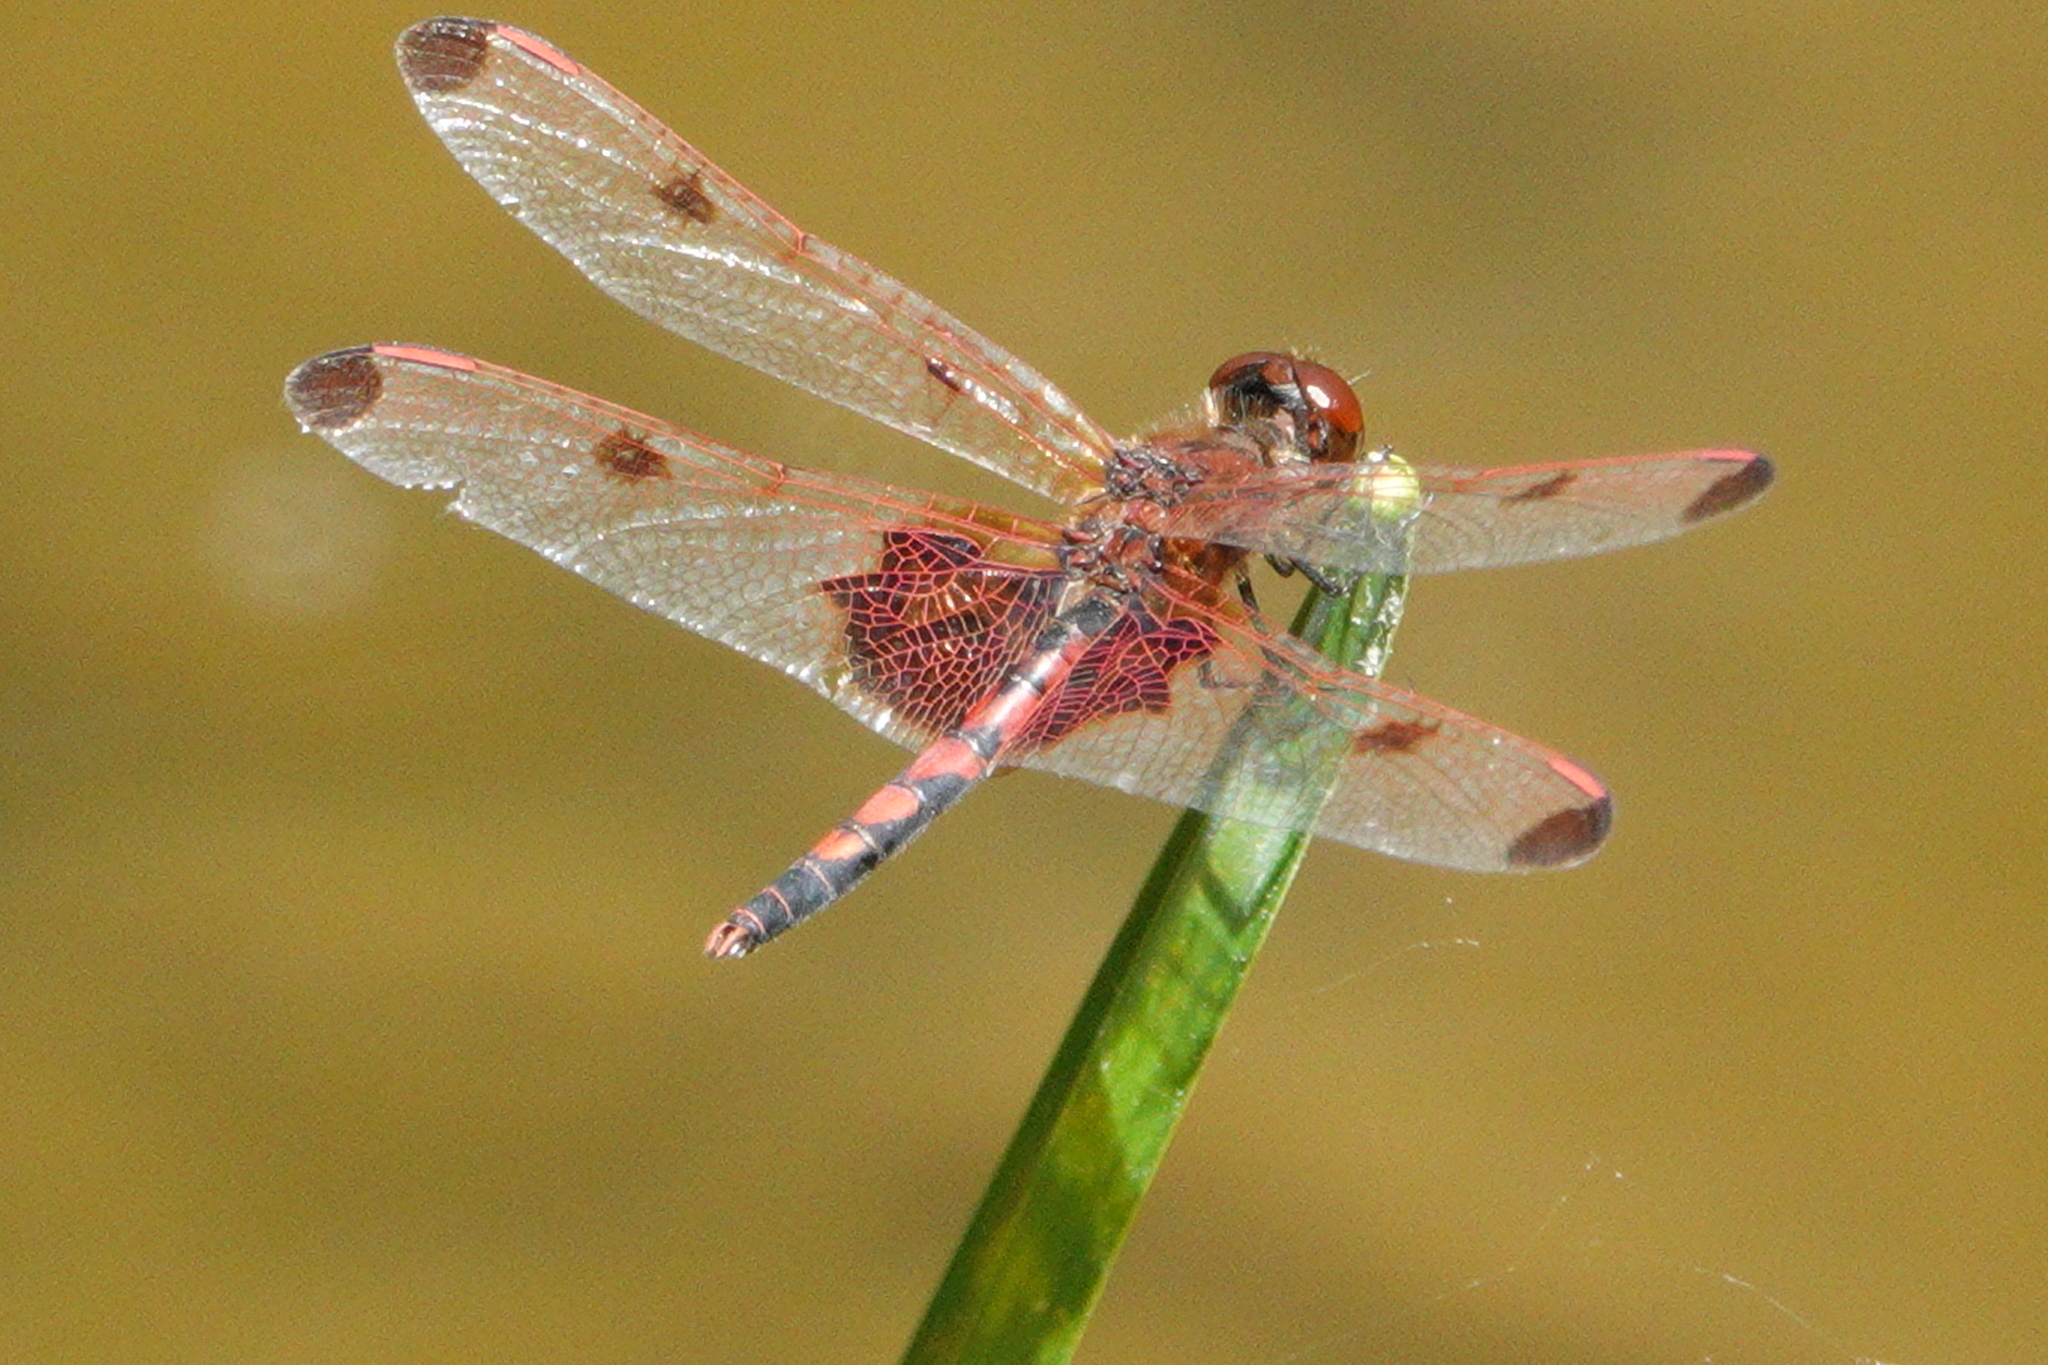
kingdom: Animalia
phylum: Arthropoda
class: Insecta
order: Odonata
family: Libellulidae
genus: Celithemis
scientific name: Celithemis elisa
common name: Calico pennant
